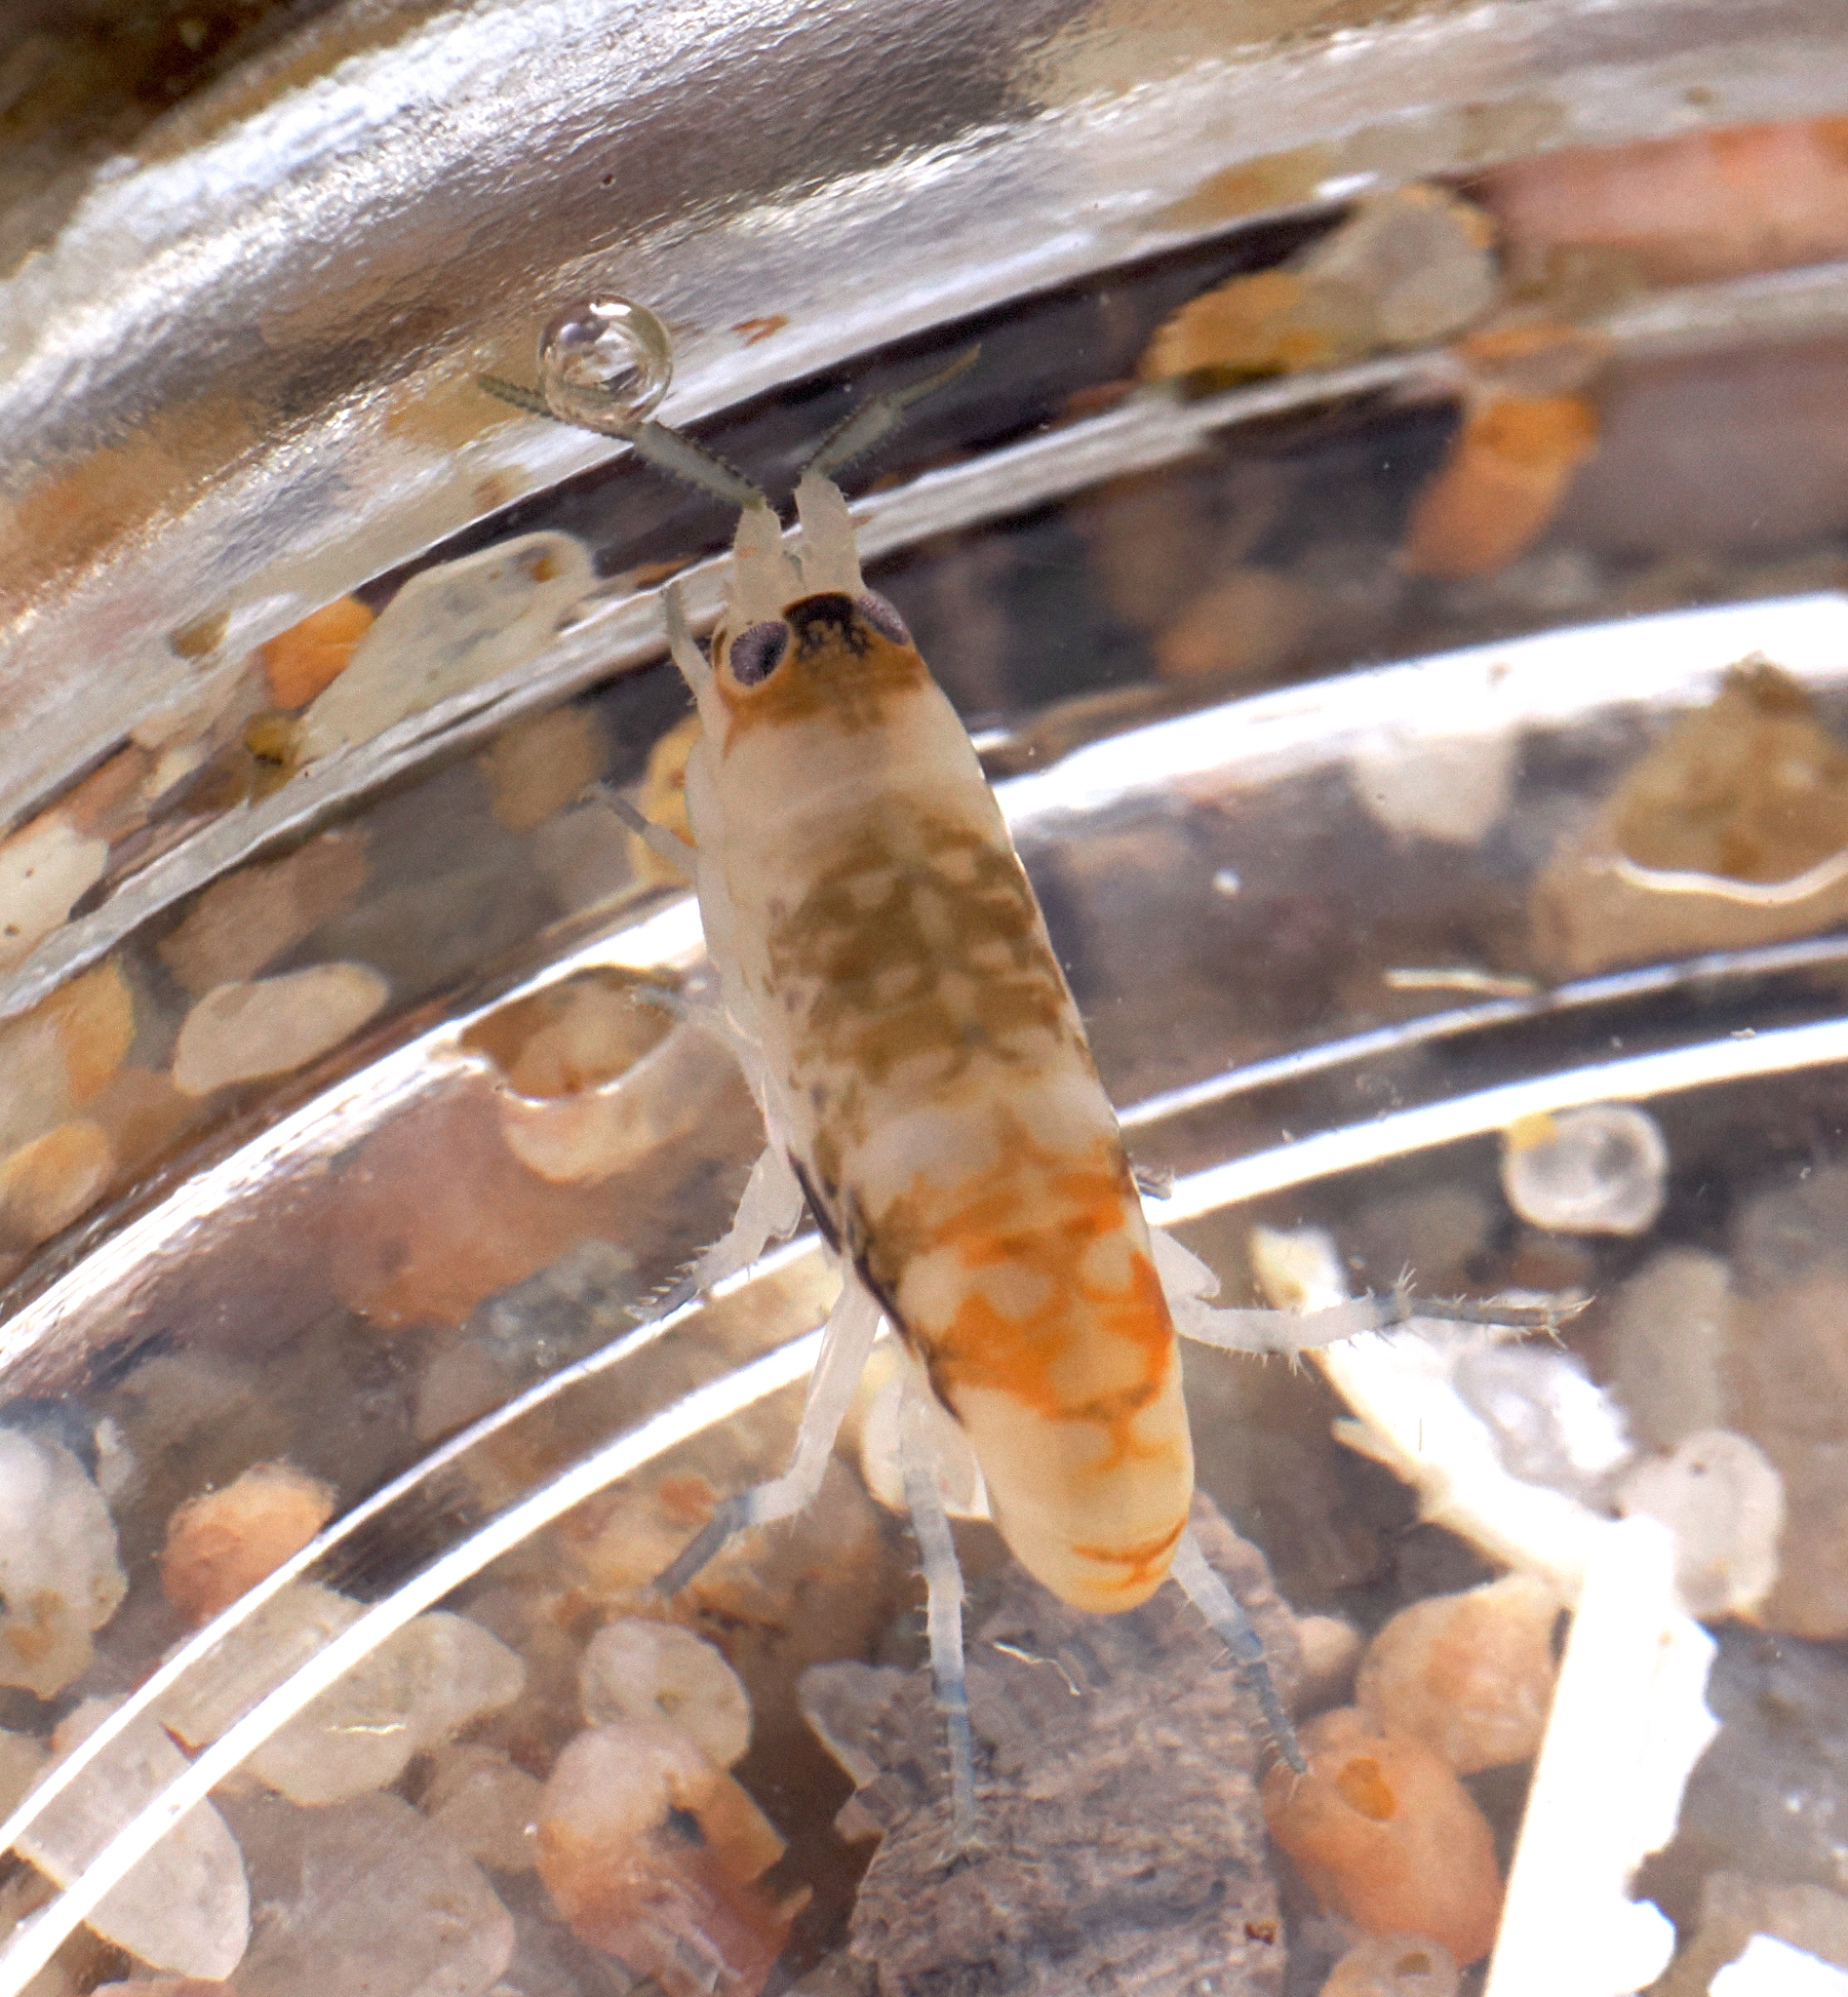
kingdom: Animalia
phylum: Arthropoda
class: Malacostraca
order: Amphipoda
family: Talitridae
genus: Megalorchestia
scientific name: Megalorchestia pugettensis
